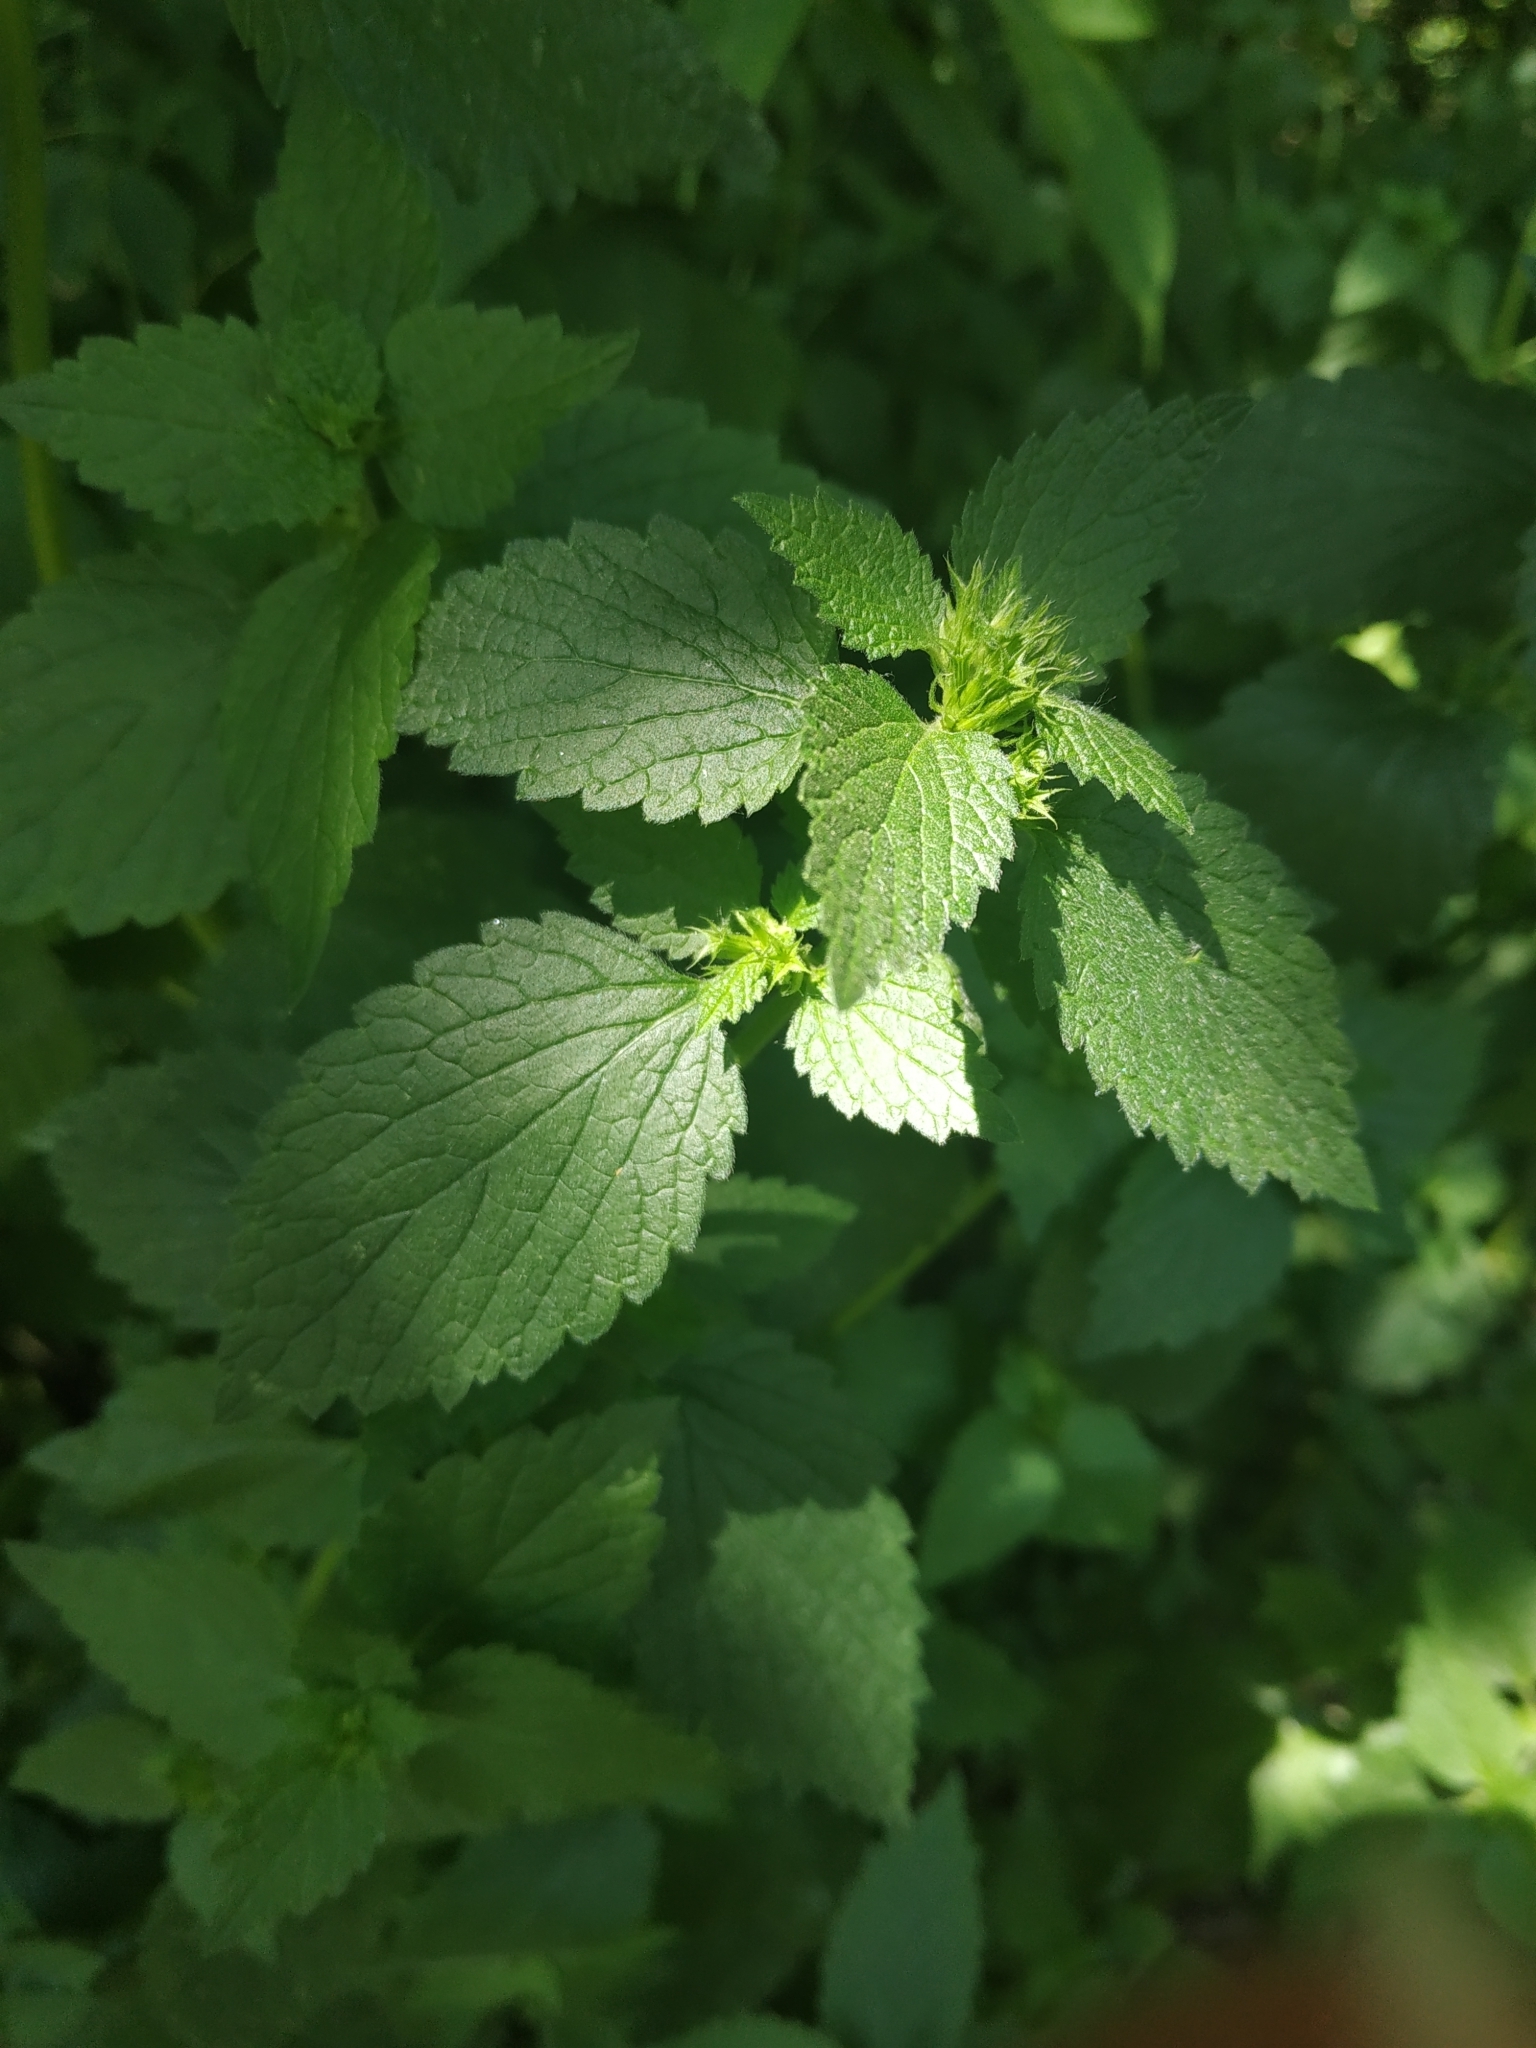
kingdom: Plantae
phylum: Tracheophyta
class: Magnoliopsida
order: Lamiales
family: Lamiaceae
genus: Ballota
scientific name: Ballota nigra
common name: Black horehound
